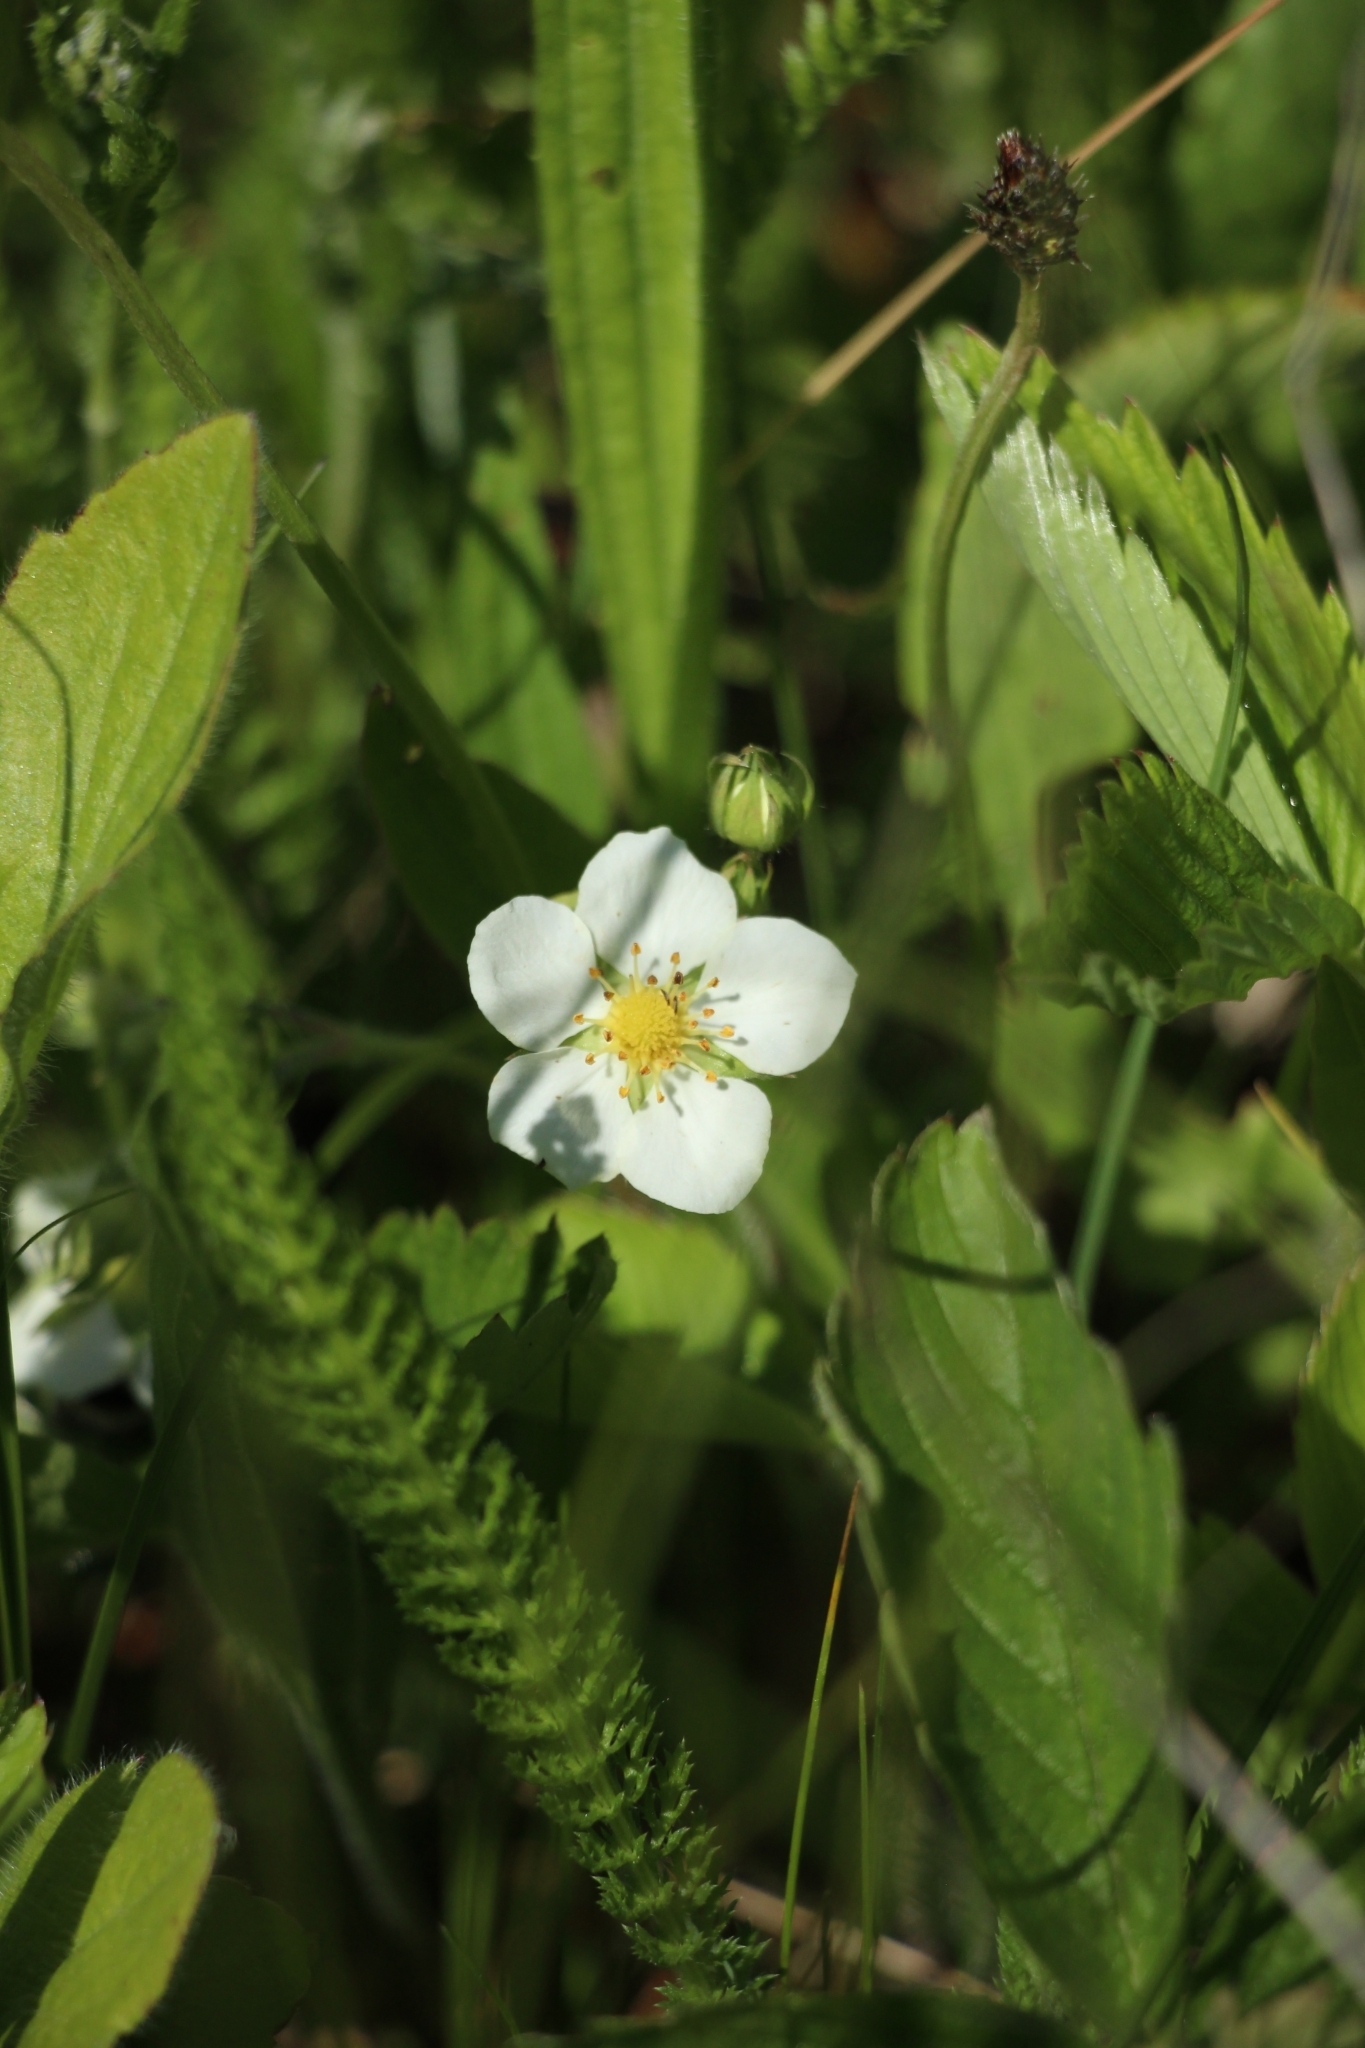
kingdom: Plantae
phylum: Tracheophyta
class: Magnoliopsida
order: Rosales
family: Rosaceae
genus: Fragaria
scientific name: Fragaria viridis
